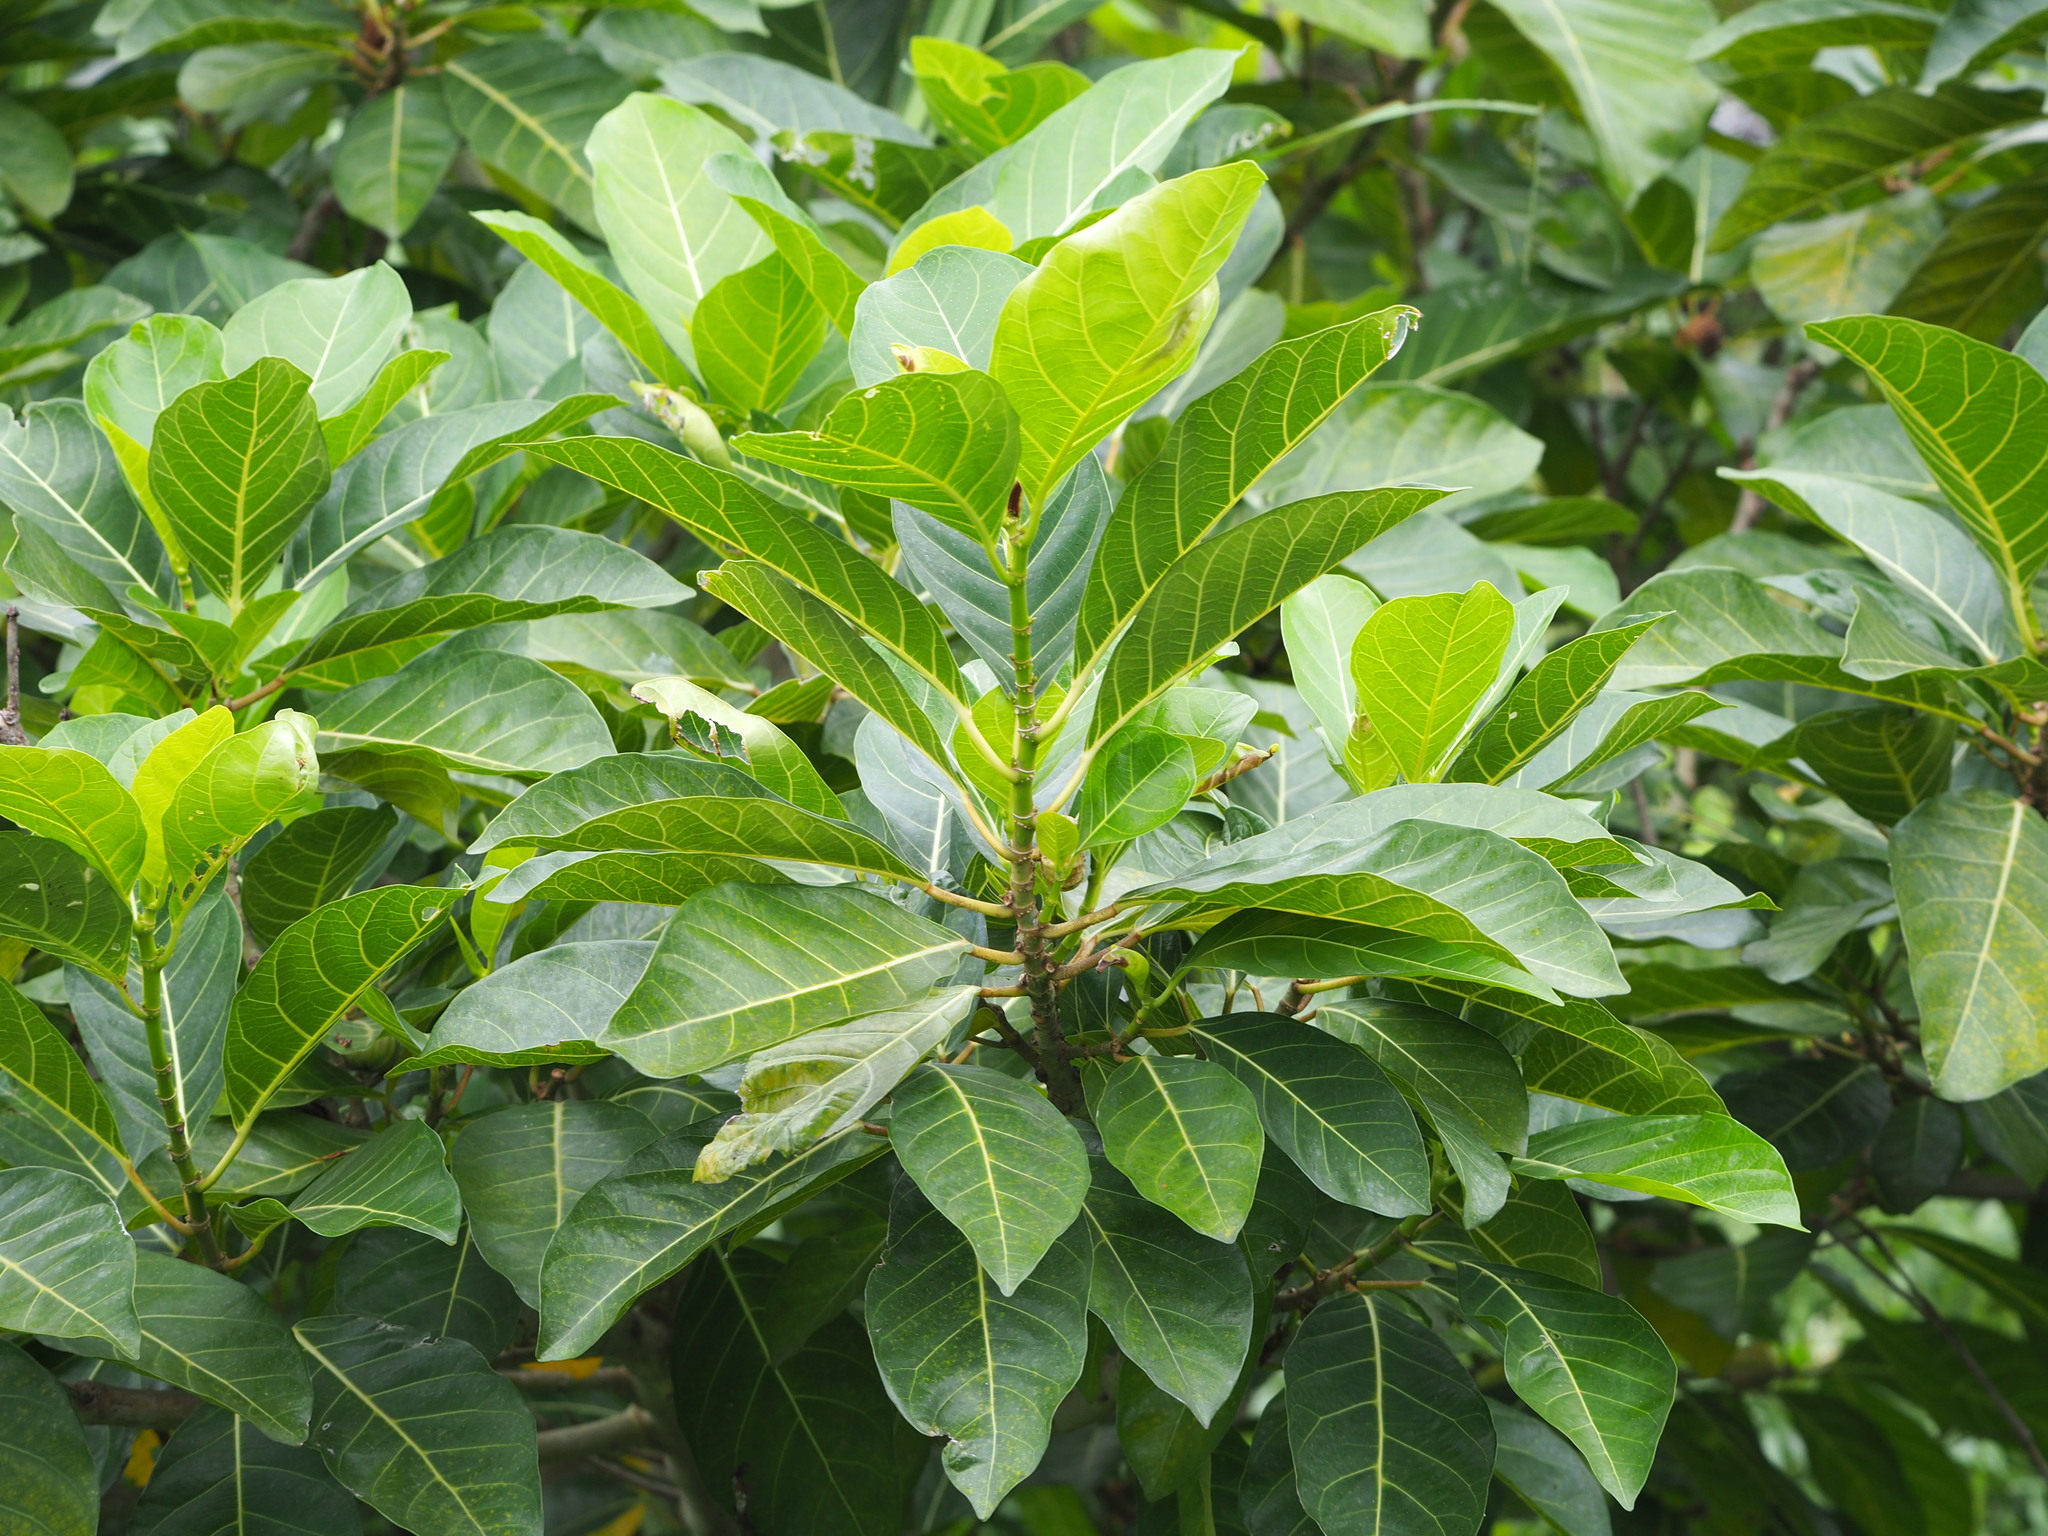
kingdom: Plantae
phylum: Tracheophyta
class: Magnoliopsida
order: Rosales
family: Moraceae
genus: Ficus
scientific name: Ficus septica
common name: Septic fig
